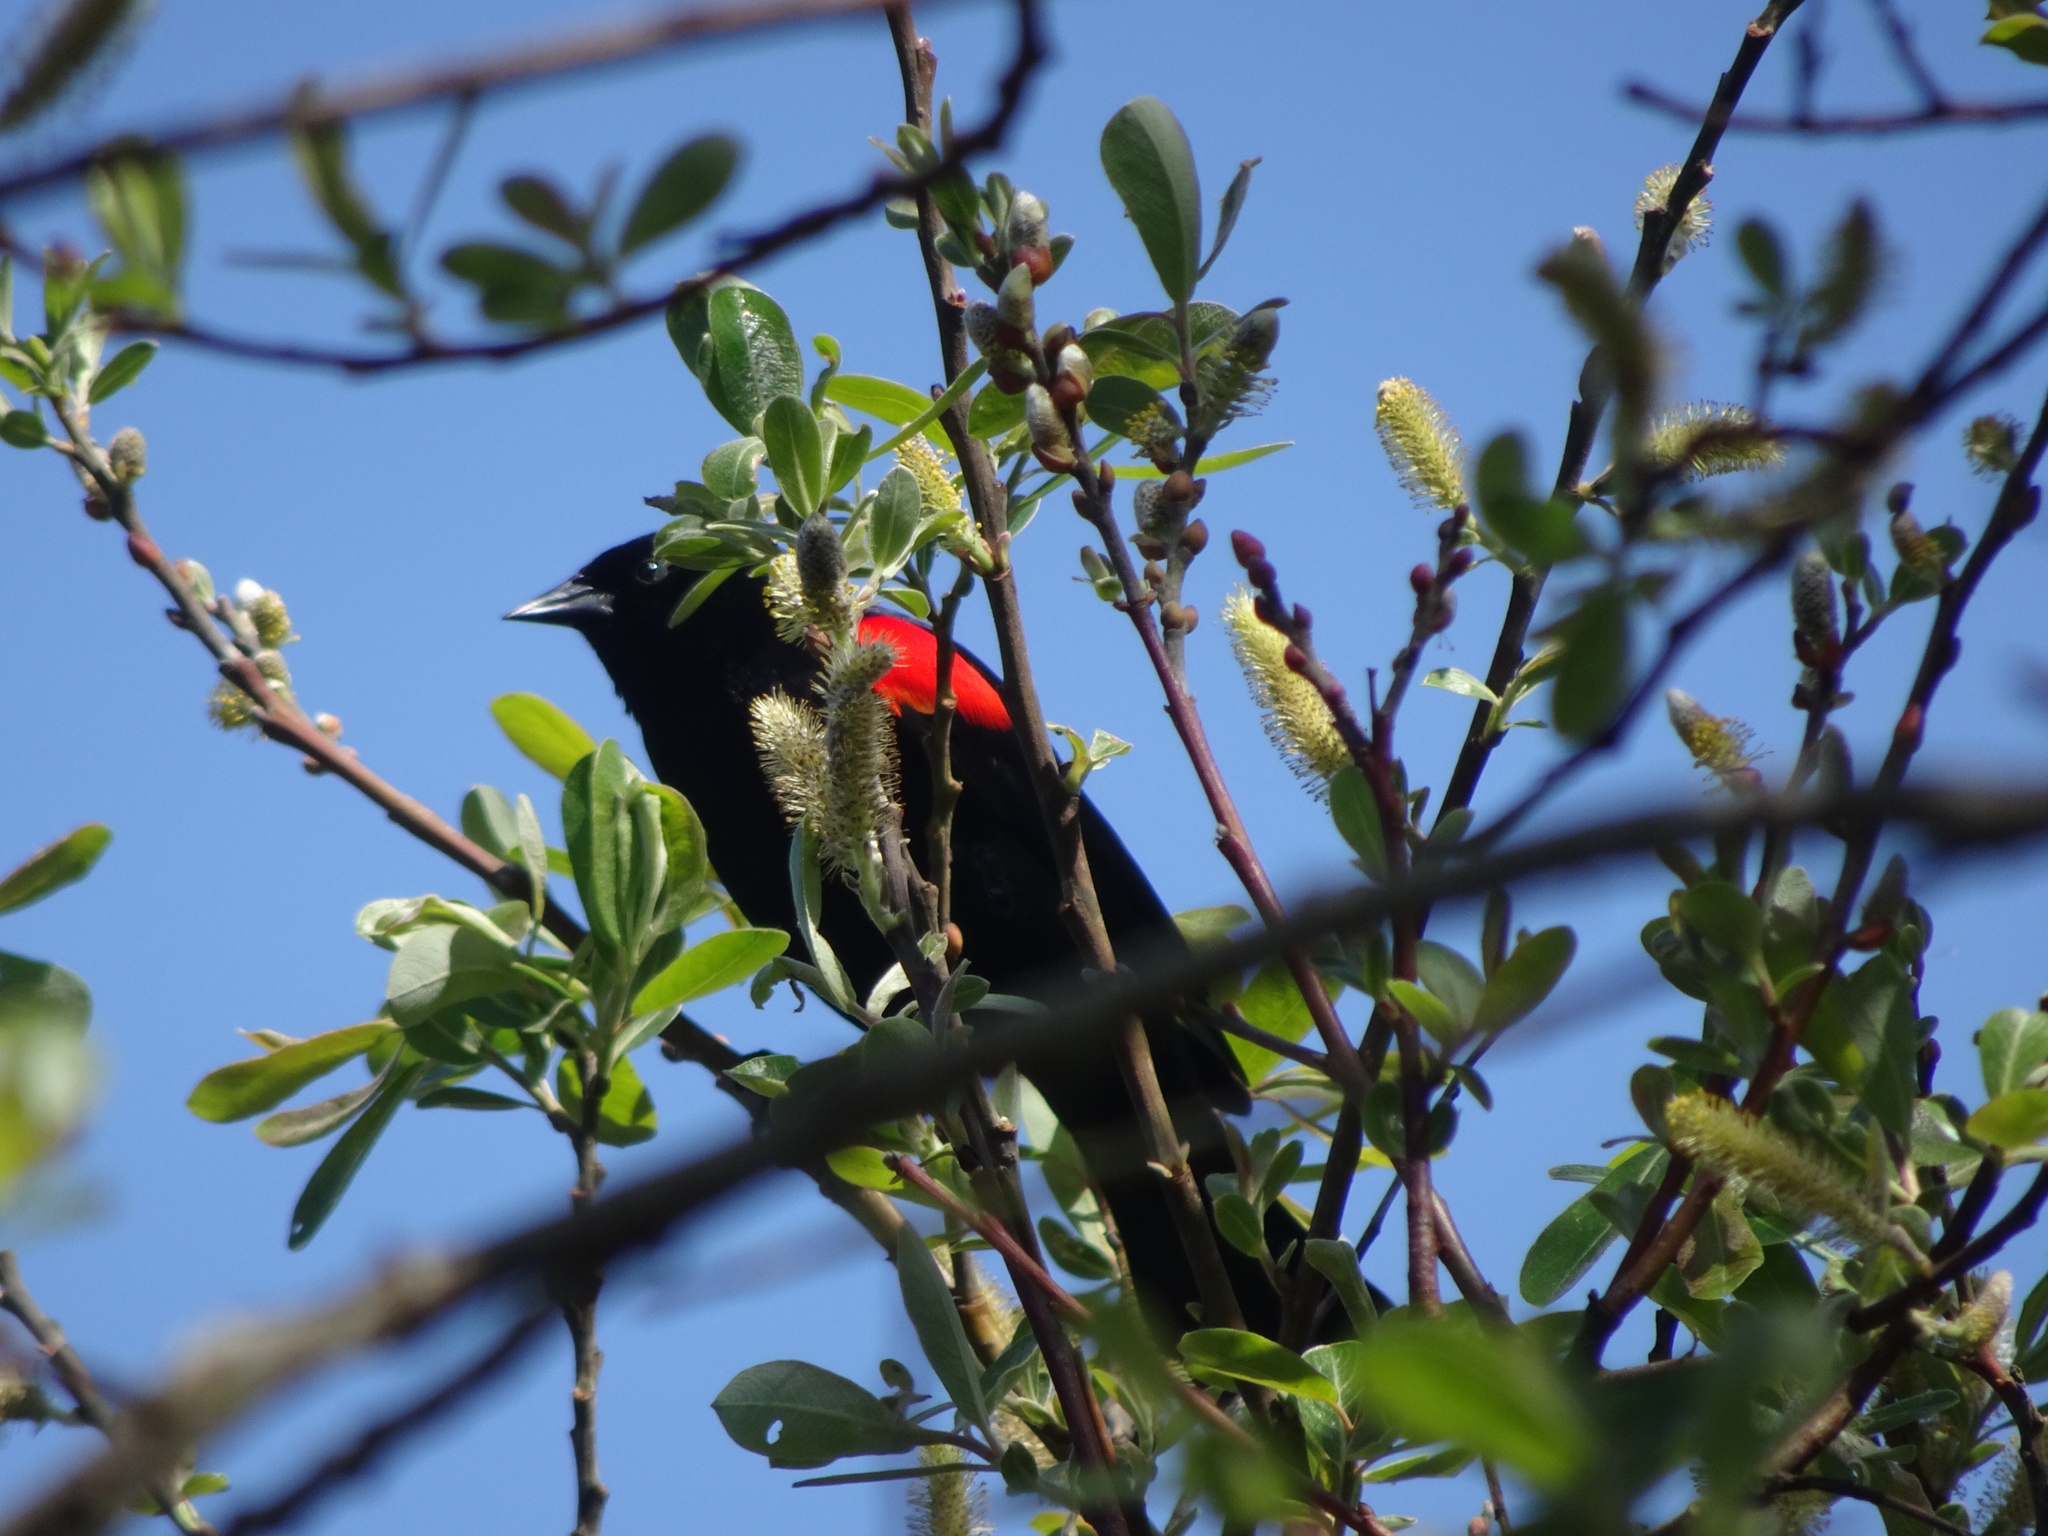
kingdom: Animalia
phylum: Chordata
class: Aves
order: Passeriformes
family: Icteridae
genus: Agelaius
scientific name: Agelaius phoeniceus
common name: Red-winged blackbird
